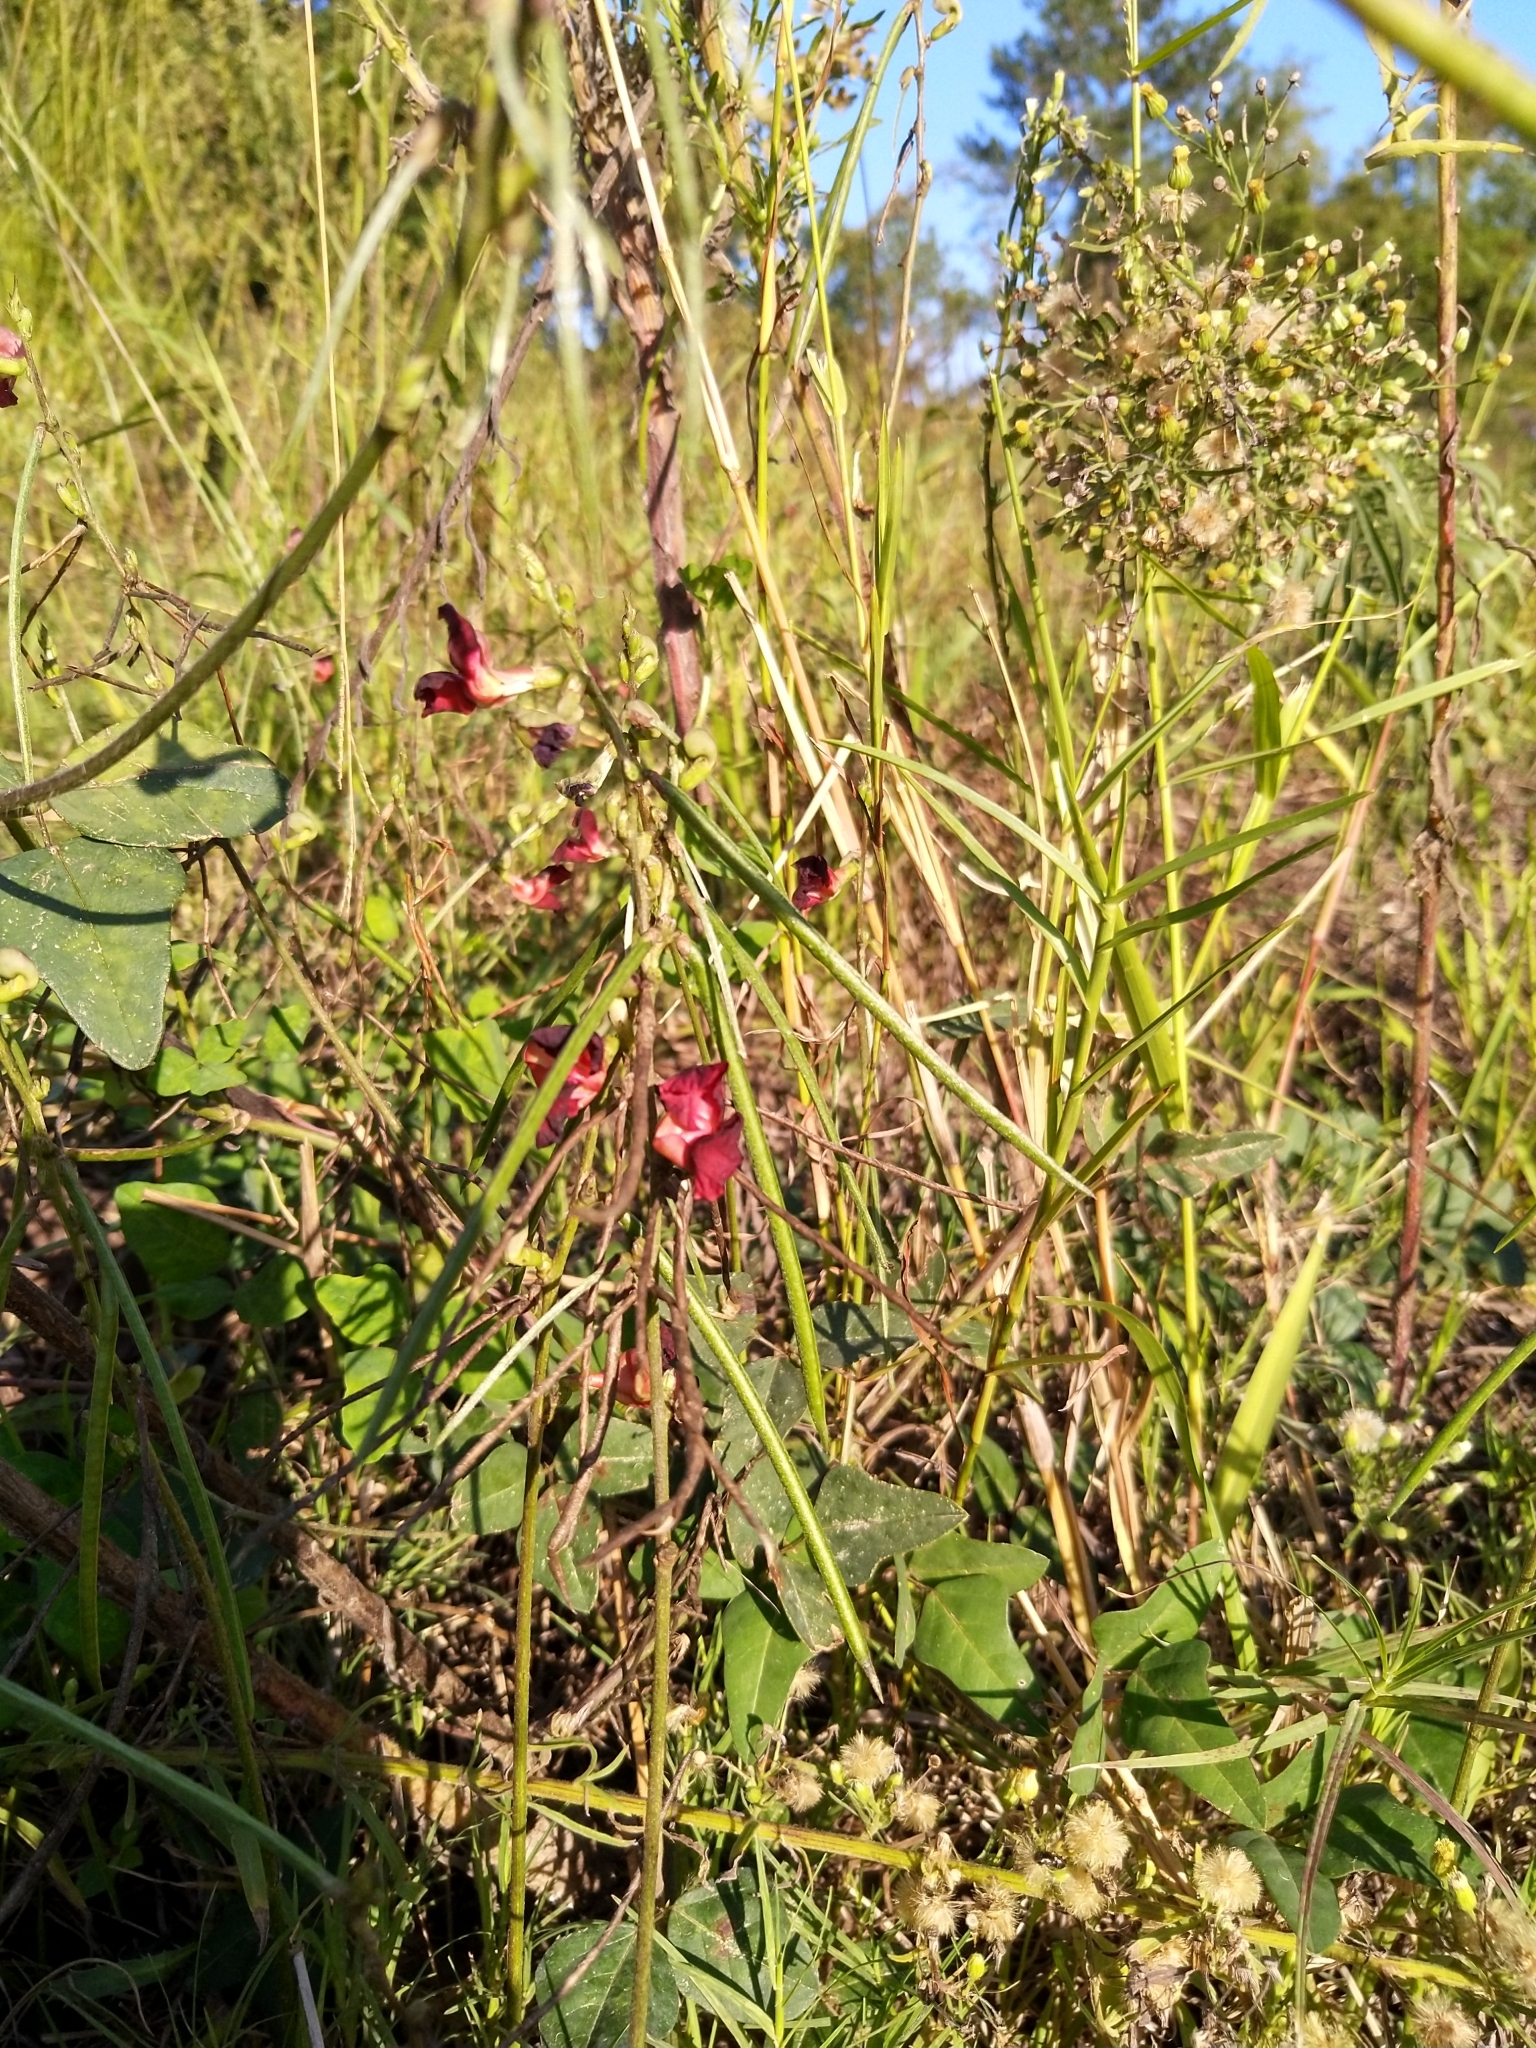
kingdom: Plantae
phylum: Tracheophyta
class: Magnoliopsida
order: Fabales
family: Fabaceae
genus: Macroptilium
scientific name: Macroptilium lathyroides
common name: Wild bushbean
